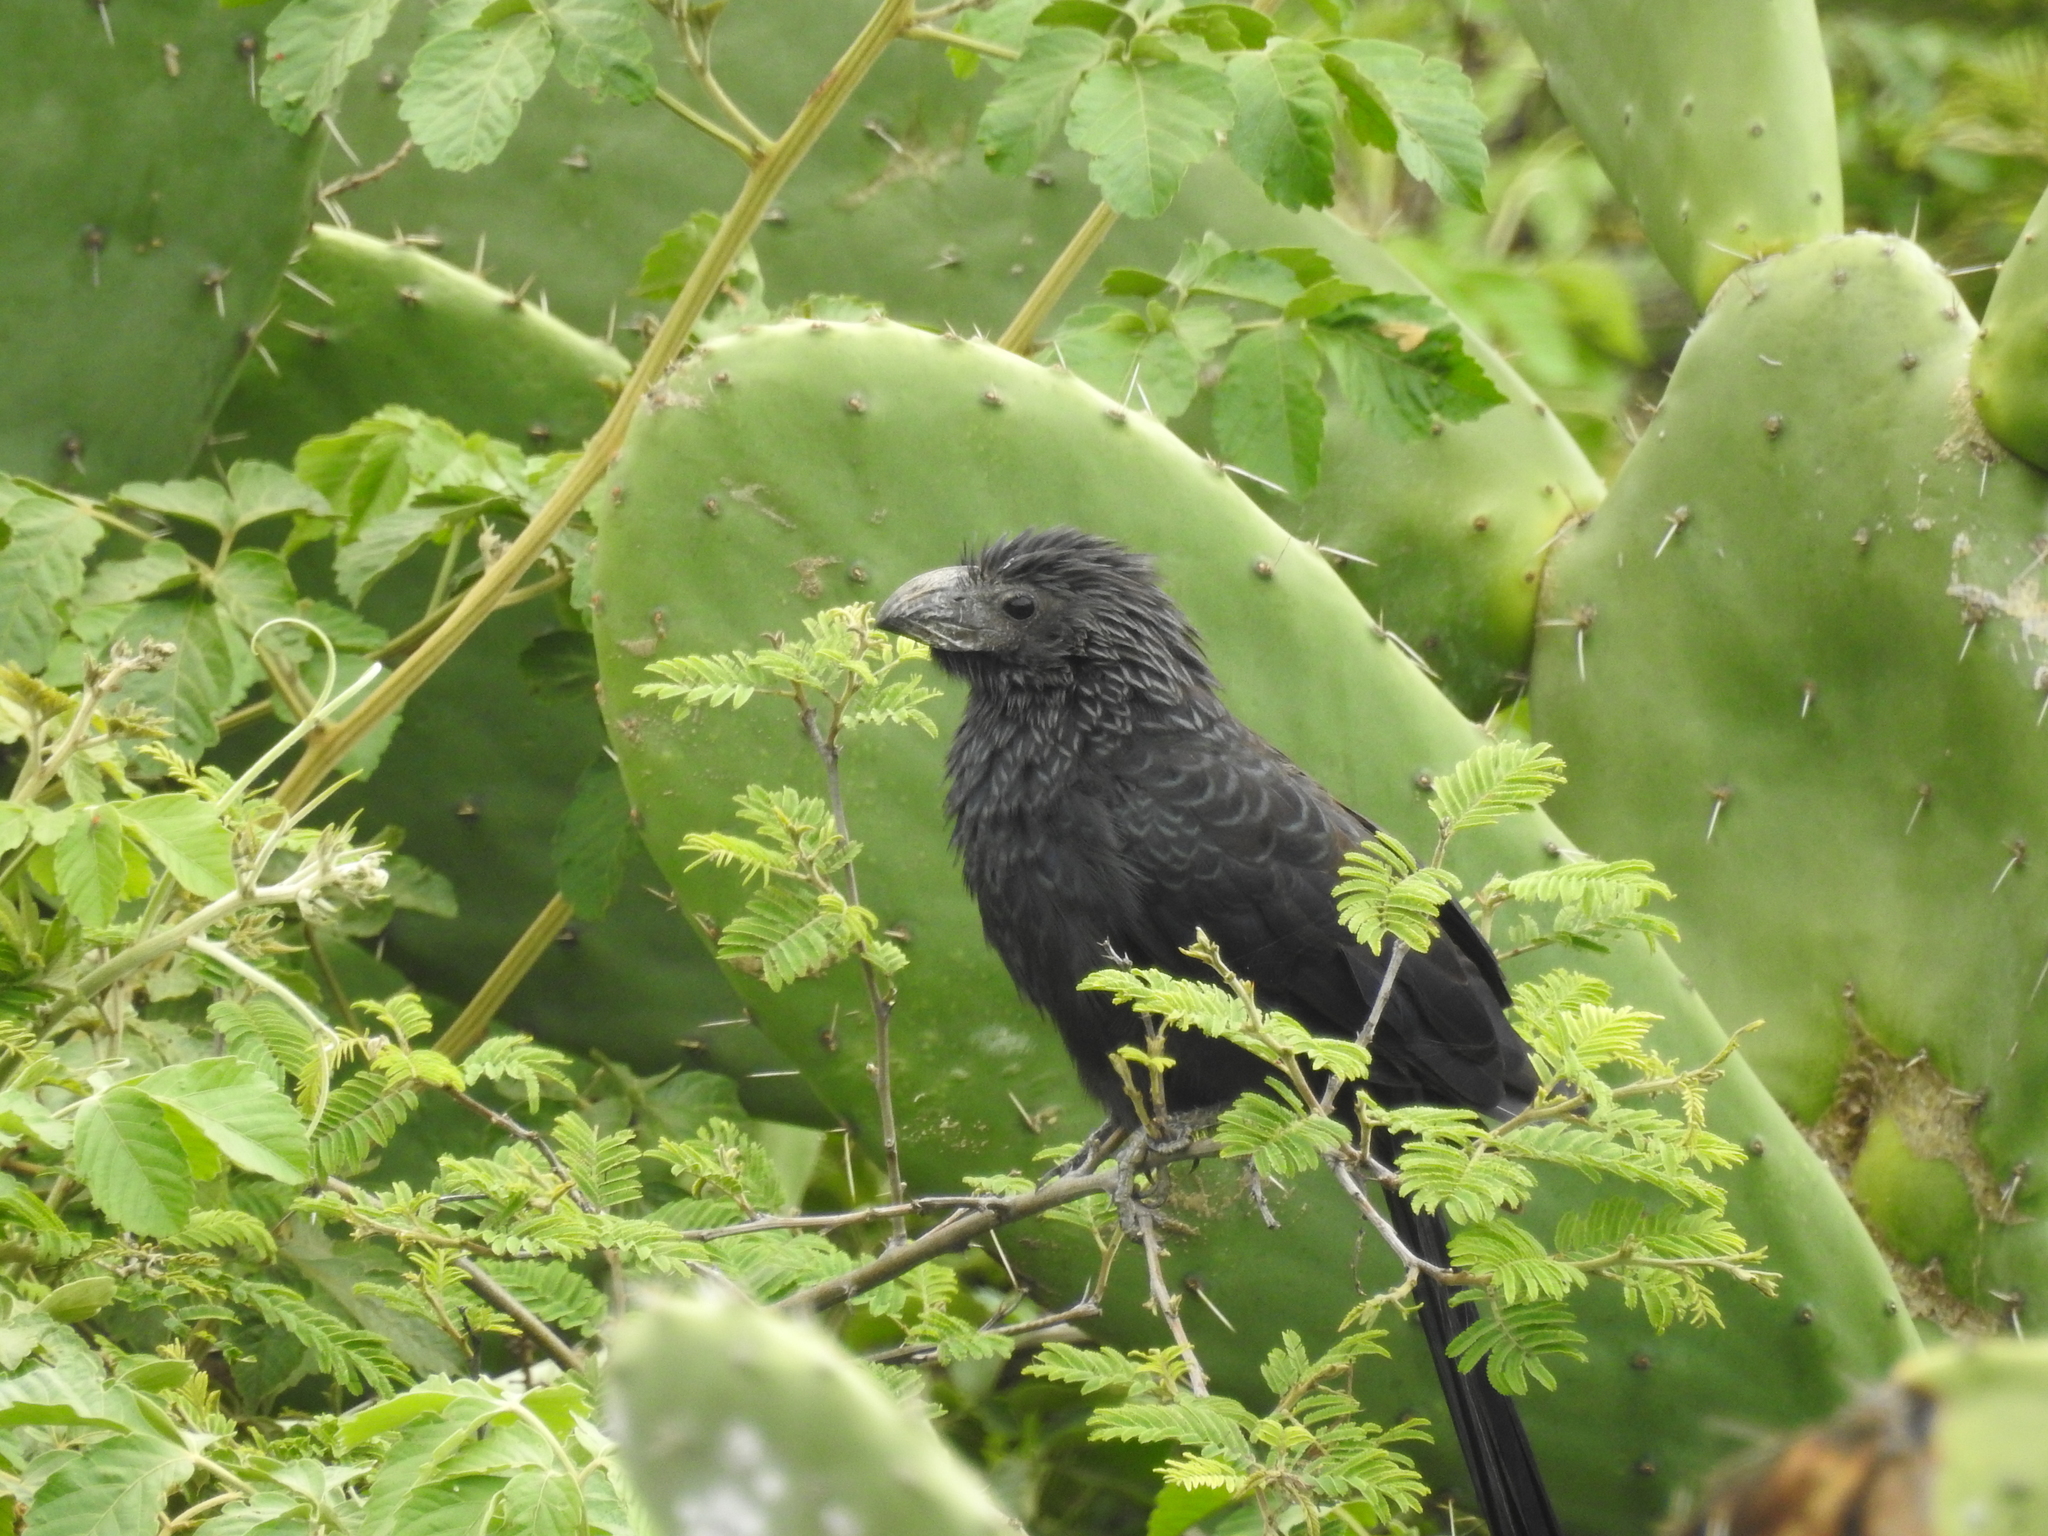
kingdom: Animalia
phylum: Chordata
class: Aves
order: Cuculiformes
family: Cuculidae
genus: Crotophaga
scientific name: Crotophaga sulcirostris
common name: Groove-billed ani
